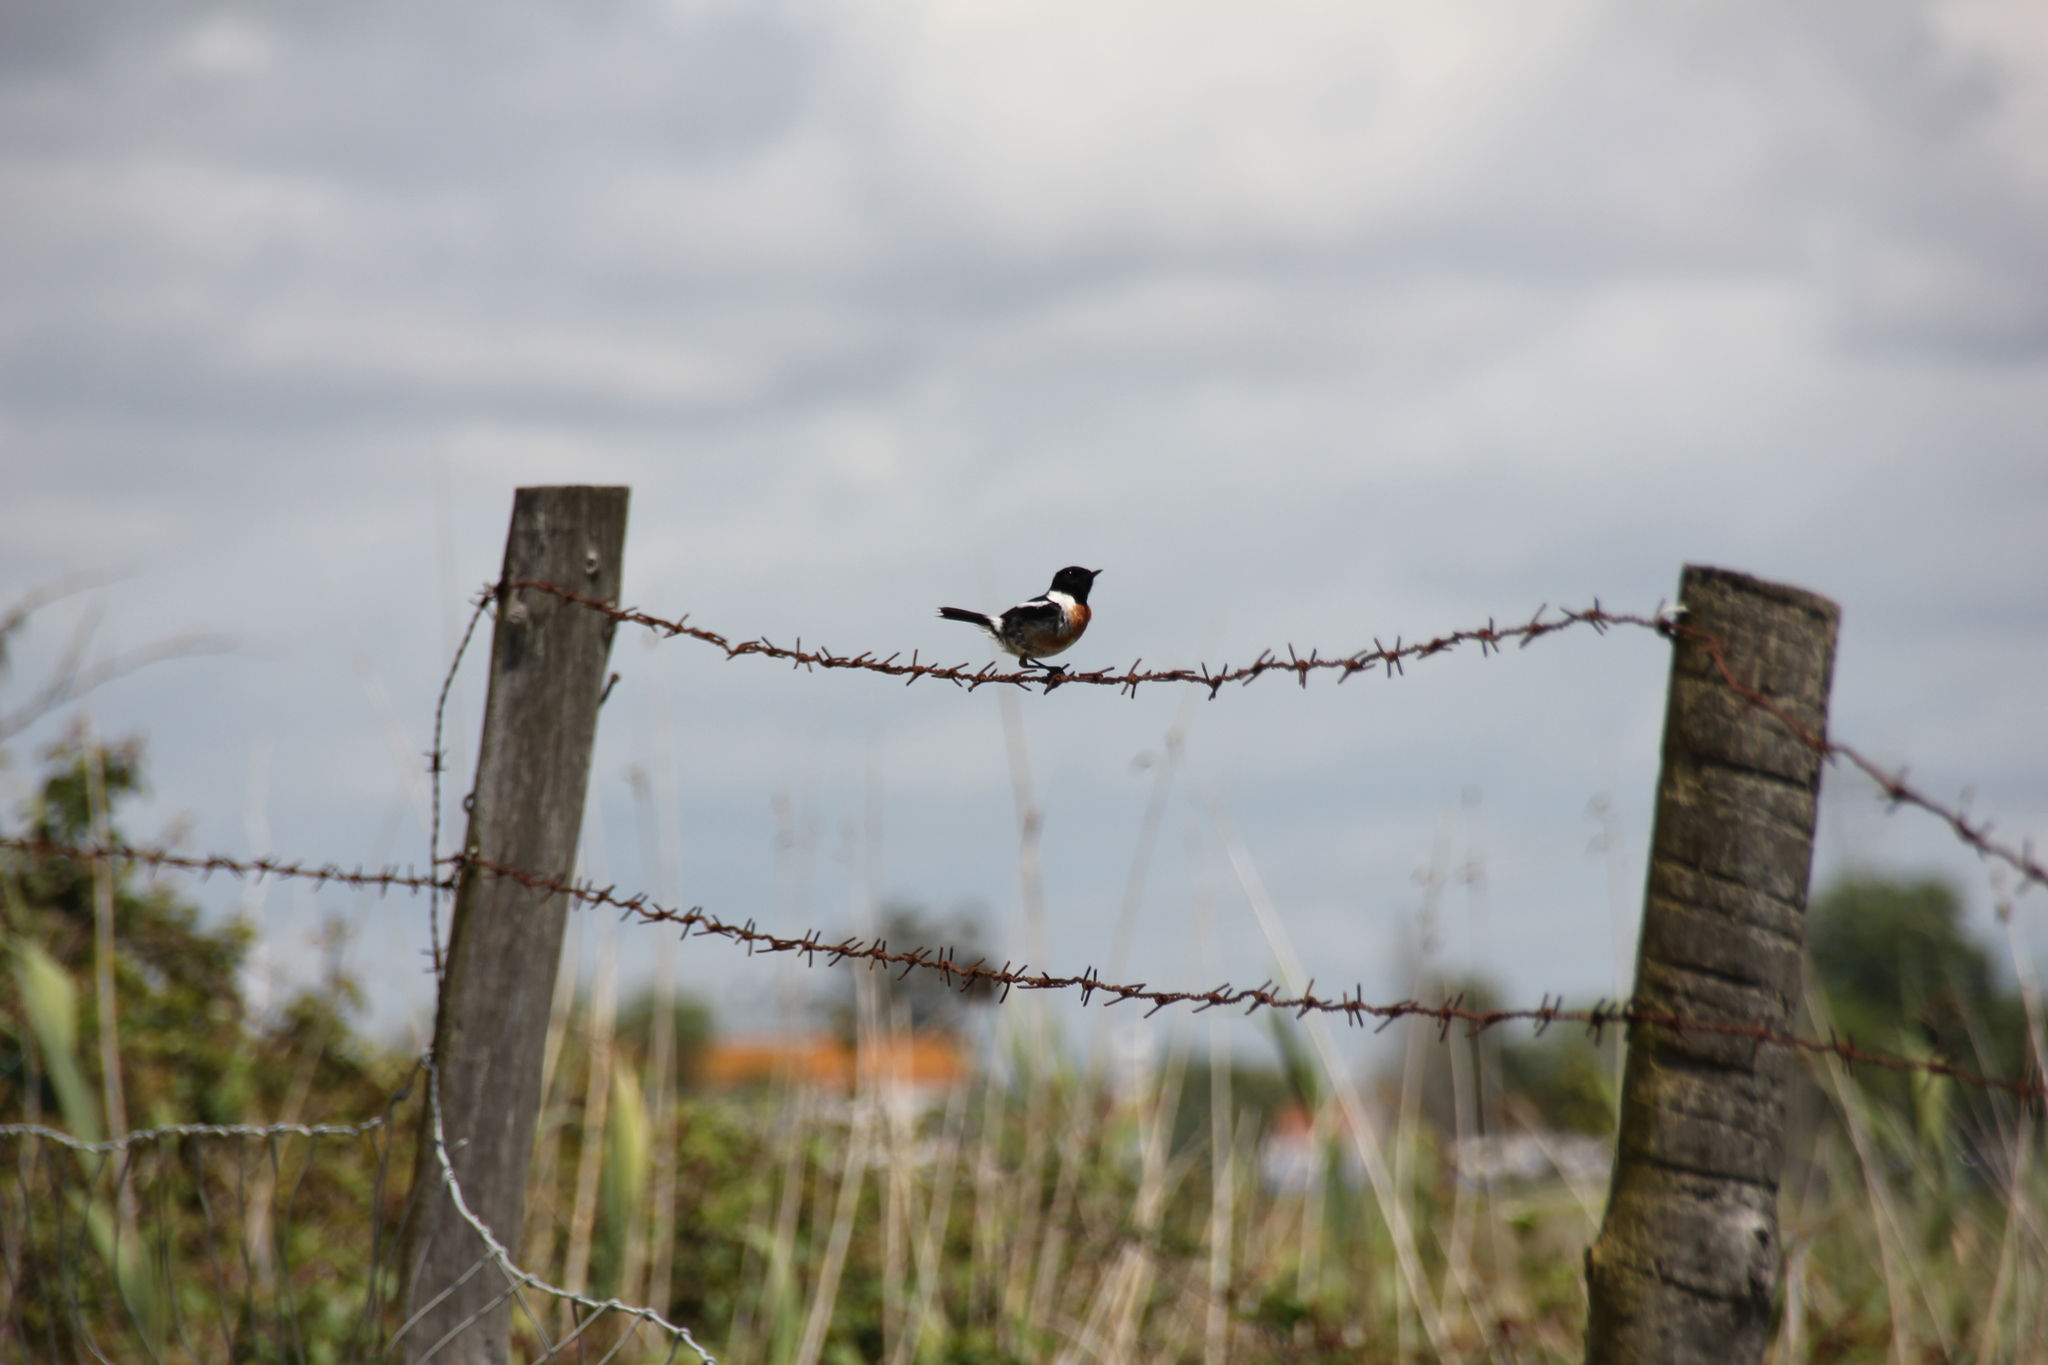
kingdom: Animalia
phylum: Chordata
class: Aves
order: Passeriformes
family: Muscicapidae
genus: Saxicola
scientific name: Saxicola rubicola
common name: European stonechat
